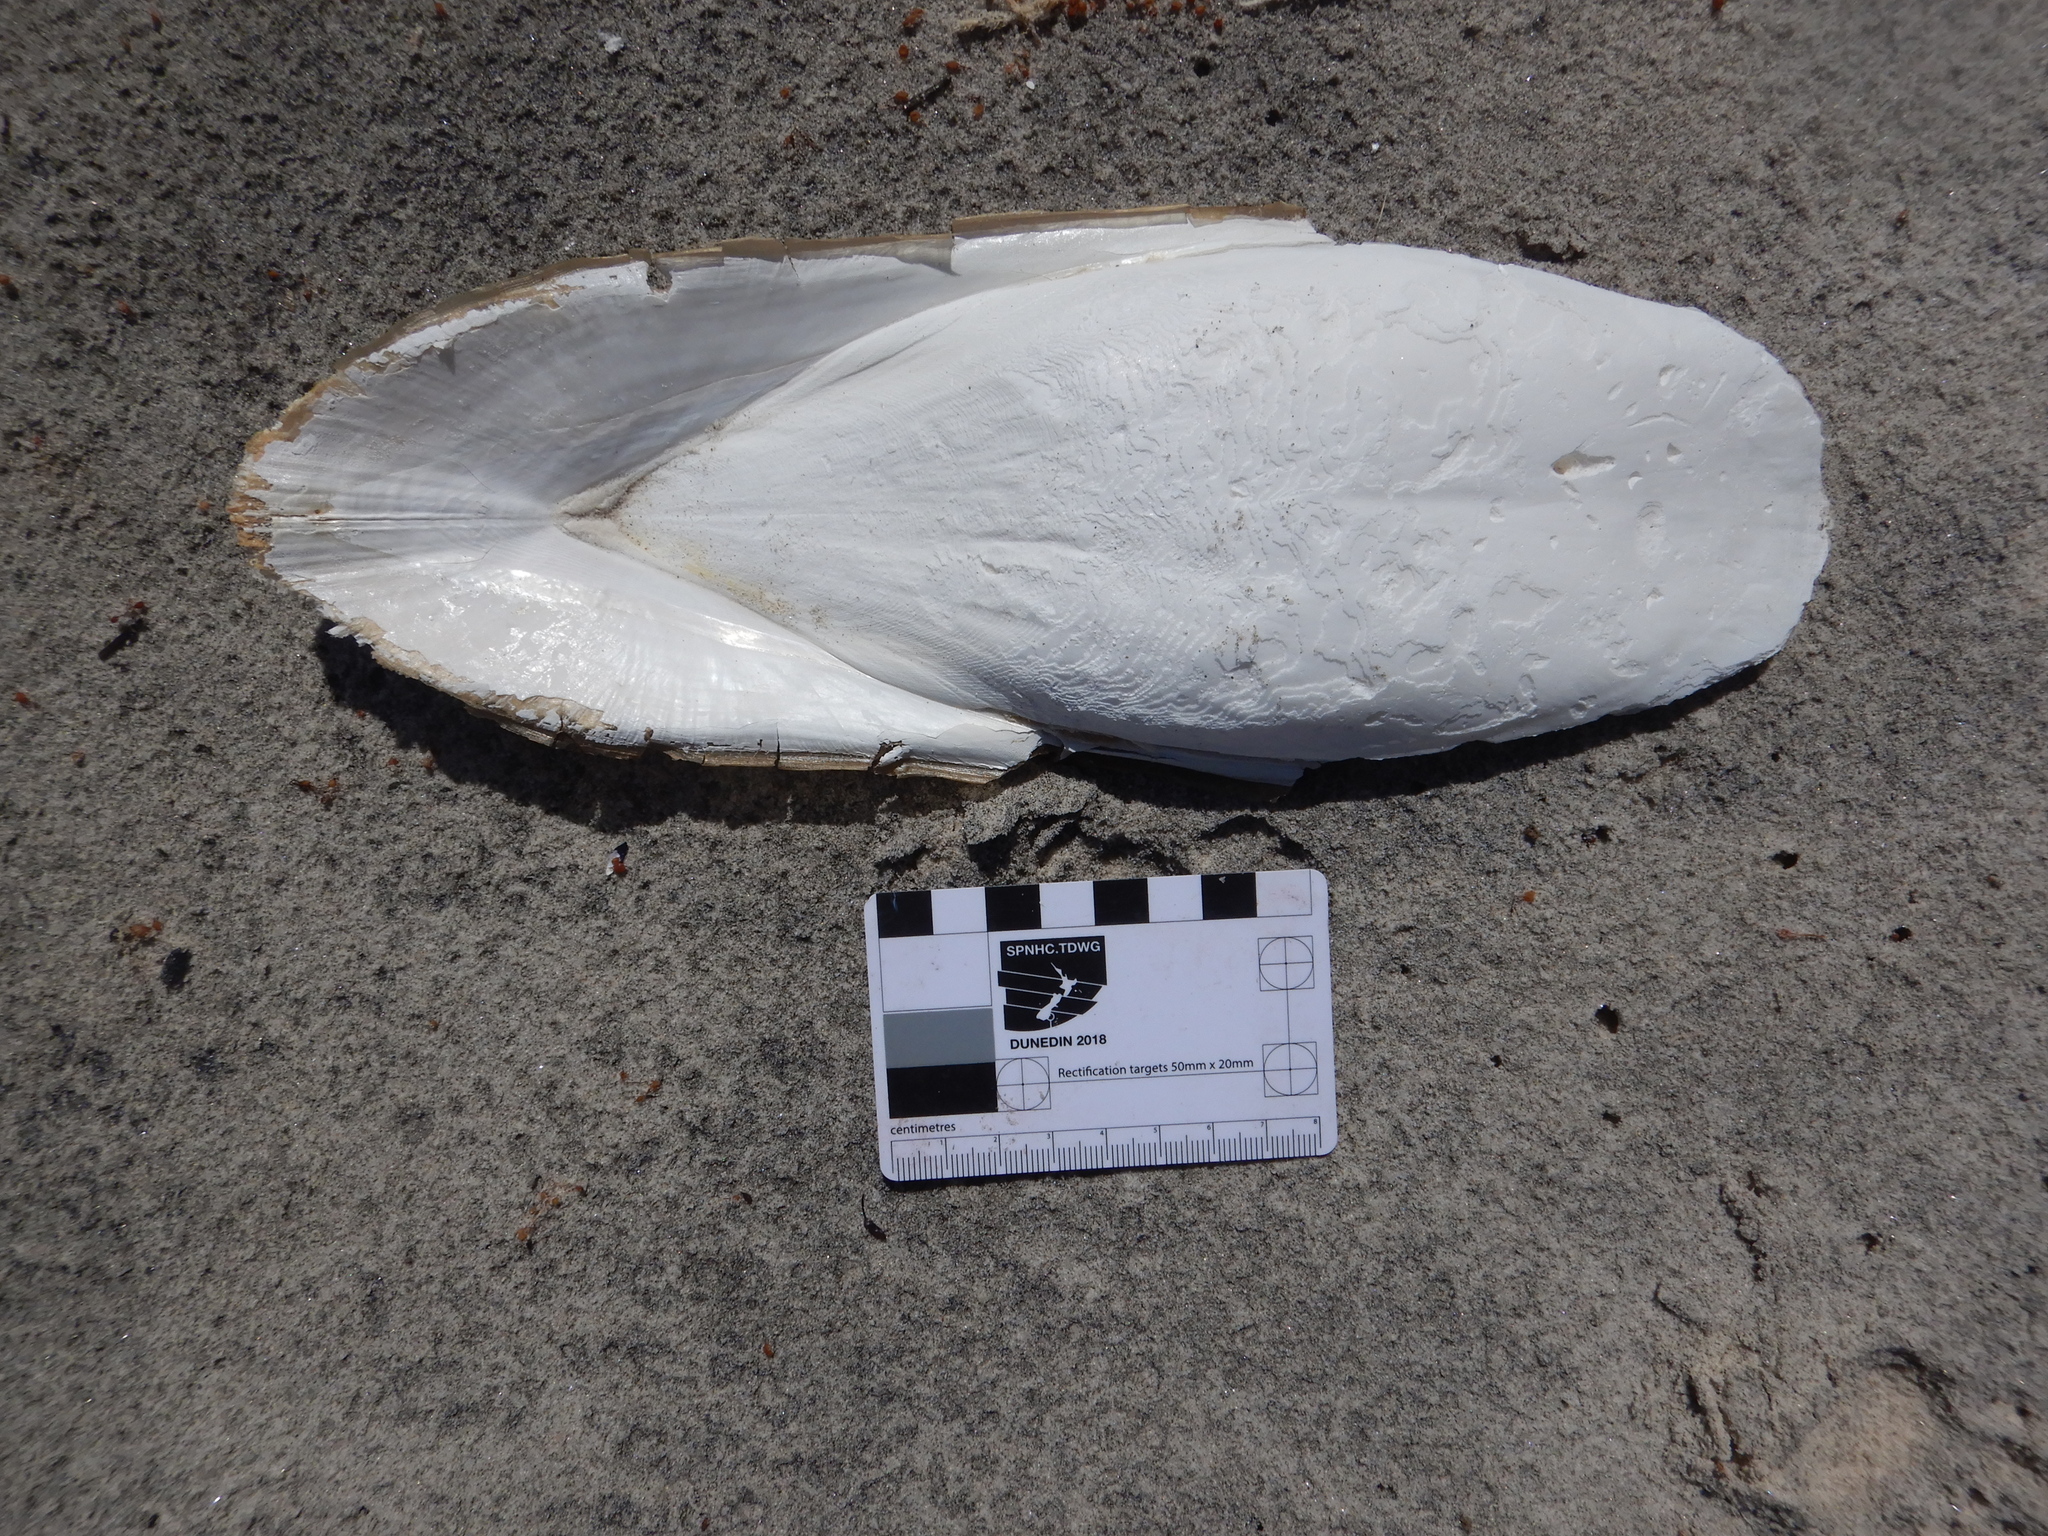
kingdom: Animalia
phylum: Mollusca
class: Cephalopoda
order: Sepiida
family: Sepiidae
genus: Ascarosepion
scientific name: Ascarosepion apama
